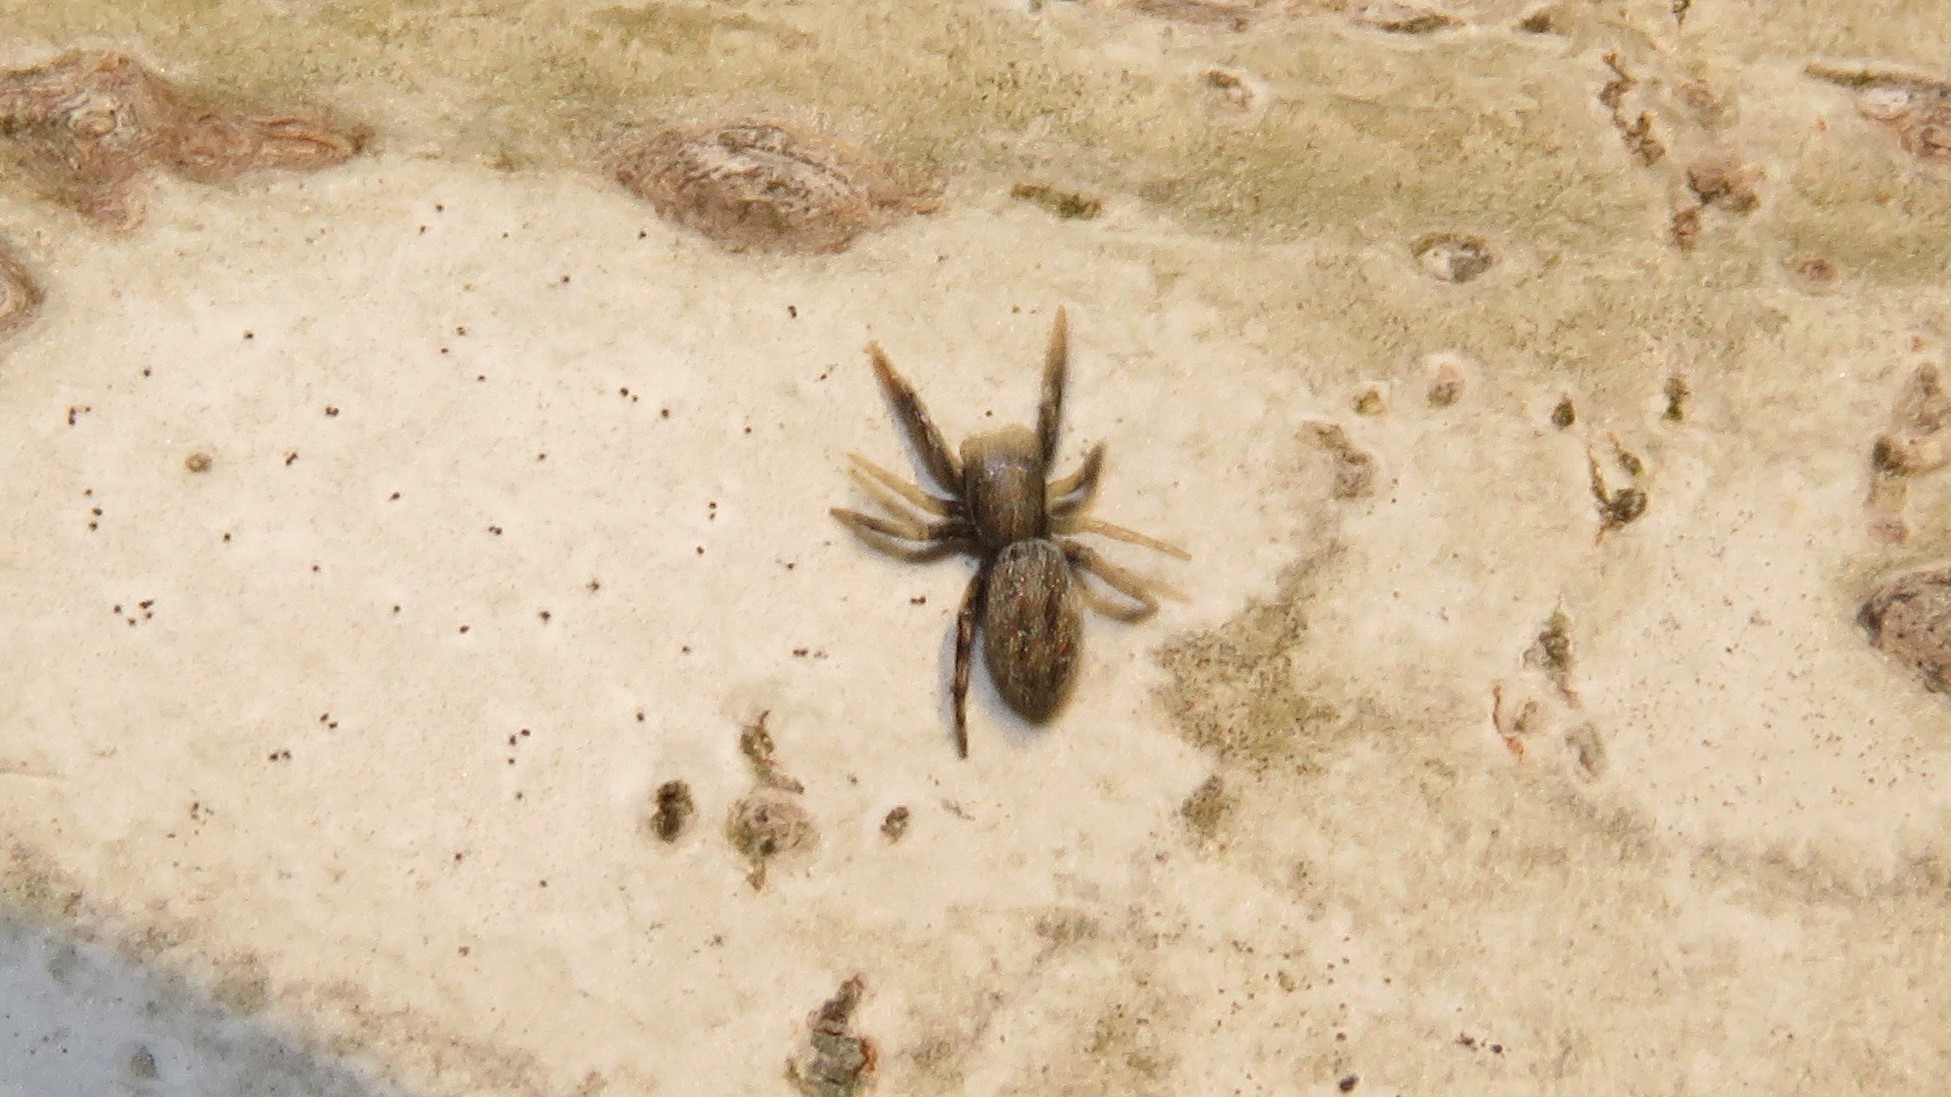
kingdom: Animalia
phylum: Arthropoda
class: Arachnida
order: Araneae
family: Salticidae
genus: Tutelina
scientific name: Tutelina harti
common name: Hart's jumping spider
